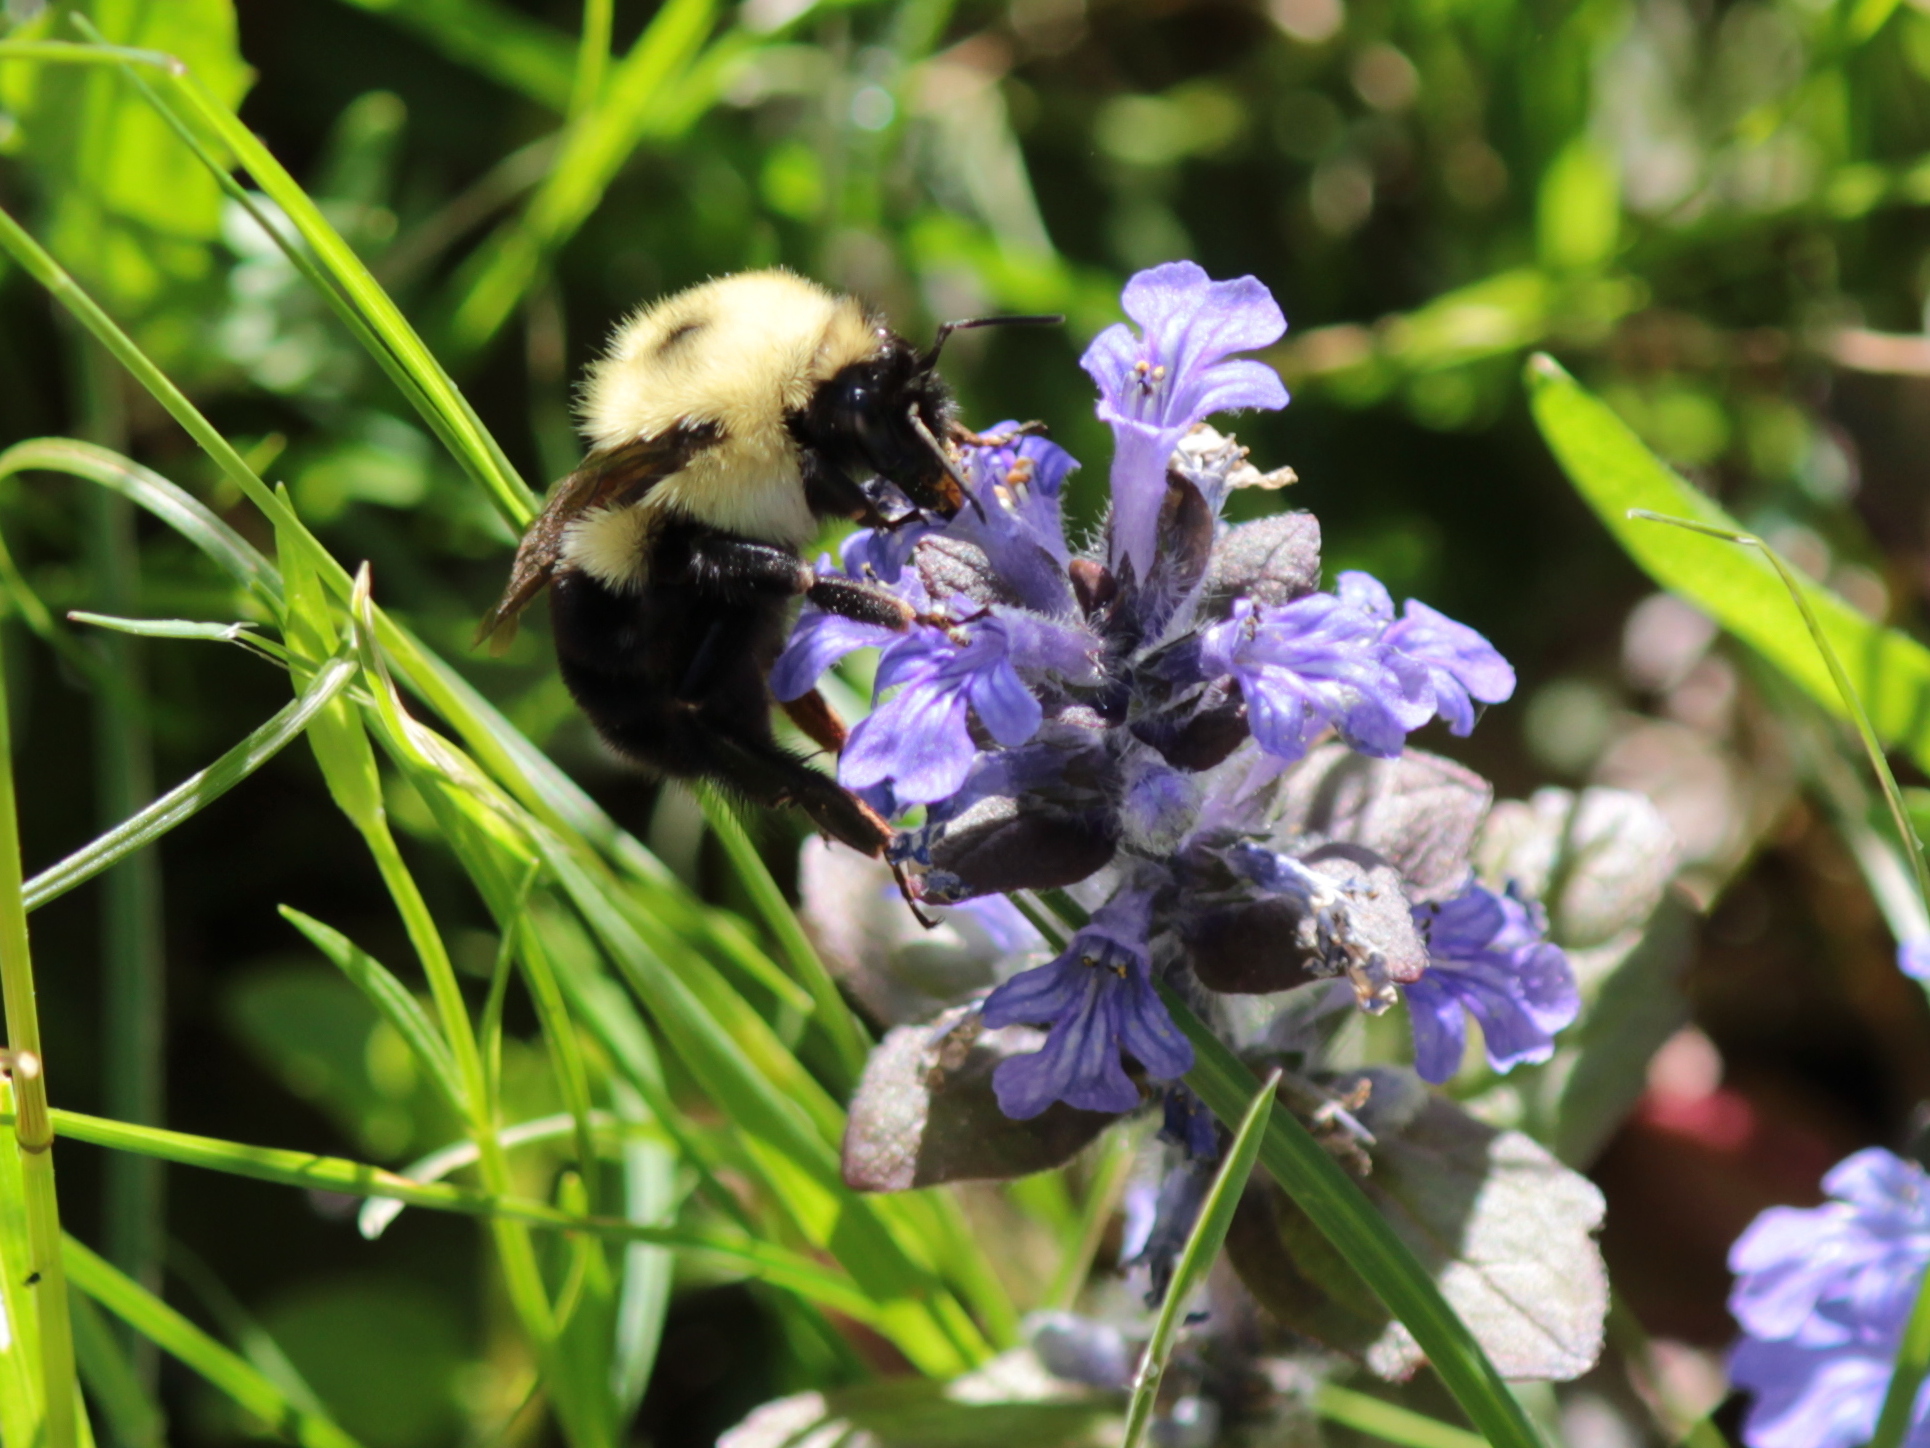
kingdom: Animalia
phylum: Arthropoda
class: Insecta
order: Hymenoptera
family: Apidae
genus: Bombus
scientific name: Bombus bimaculatus
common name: Two-spotted bumble bee
